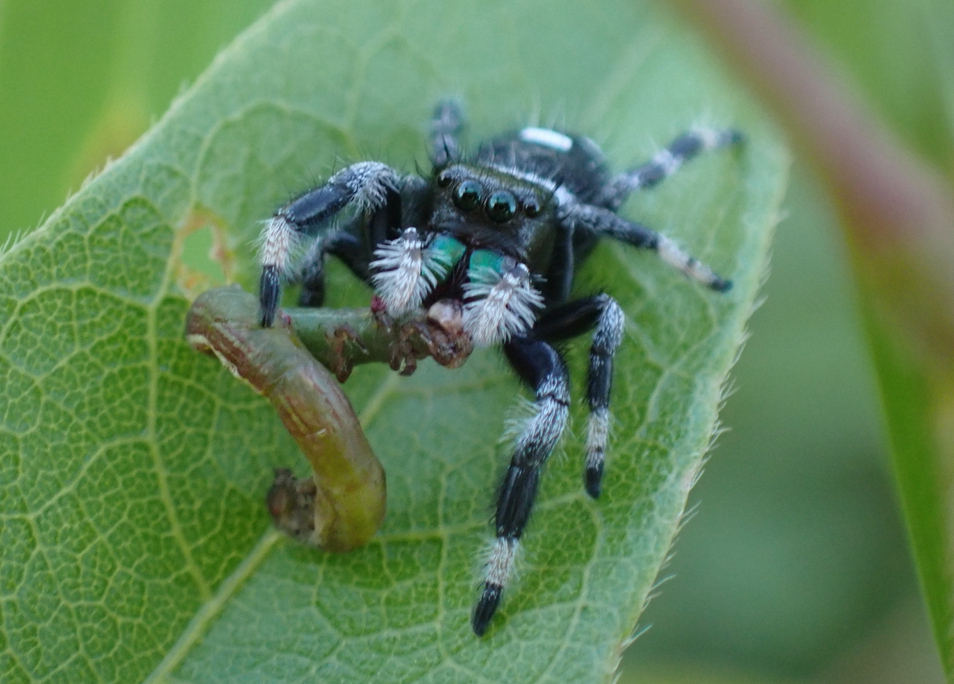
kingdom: Animalia
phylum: Arthropoda
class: Arachnida
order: Araneae
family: Salticidae
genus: Phidippus
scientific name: Phidippus regius
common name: Regal jumper
